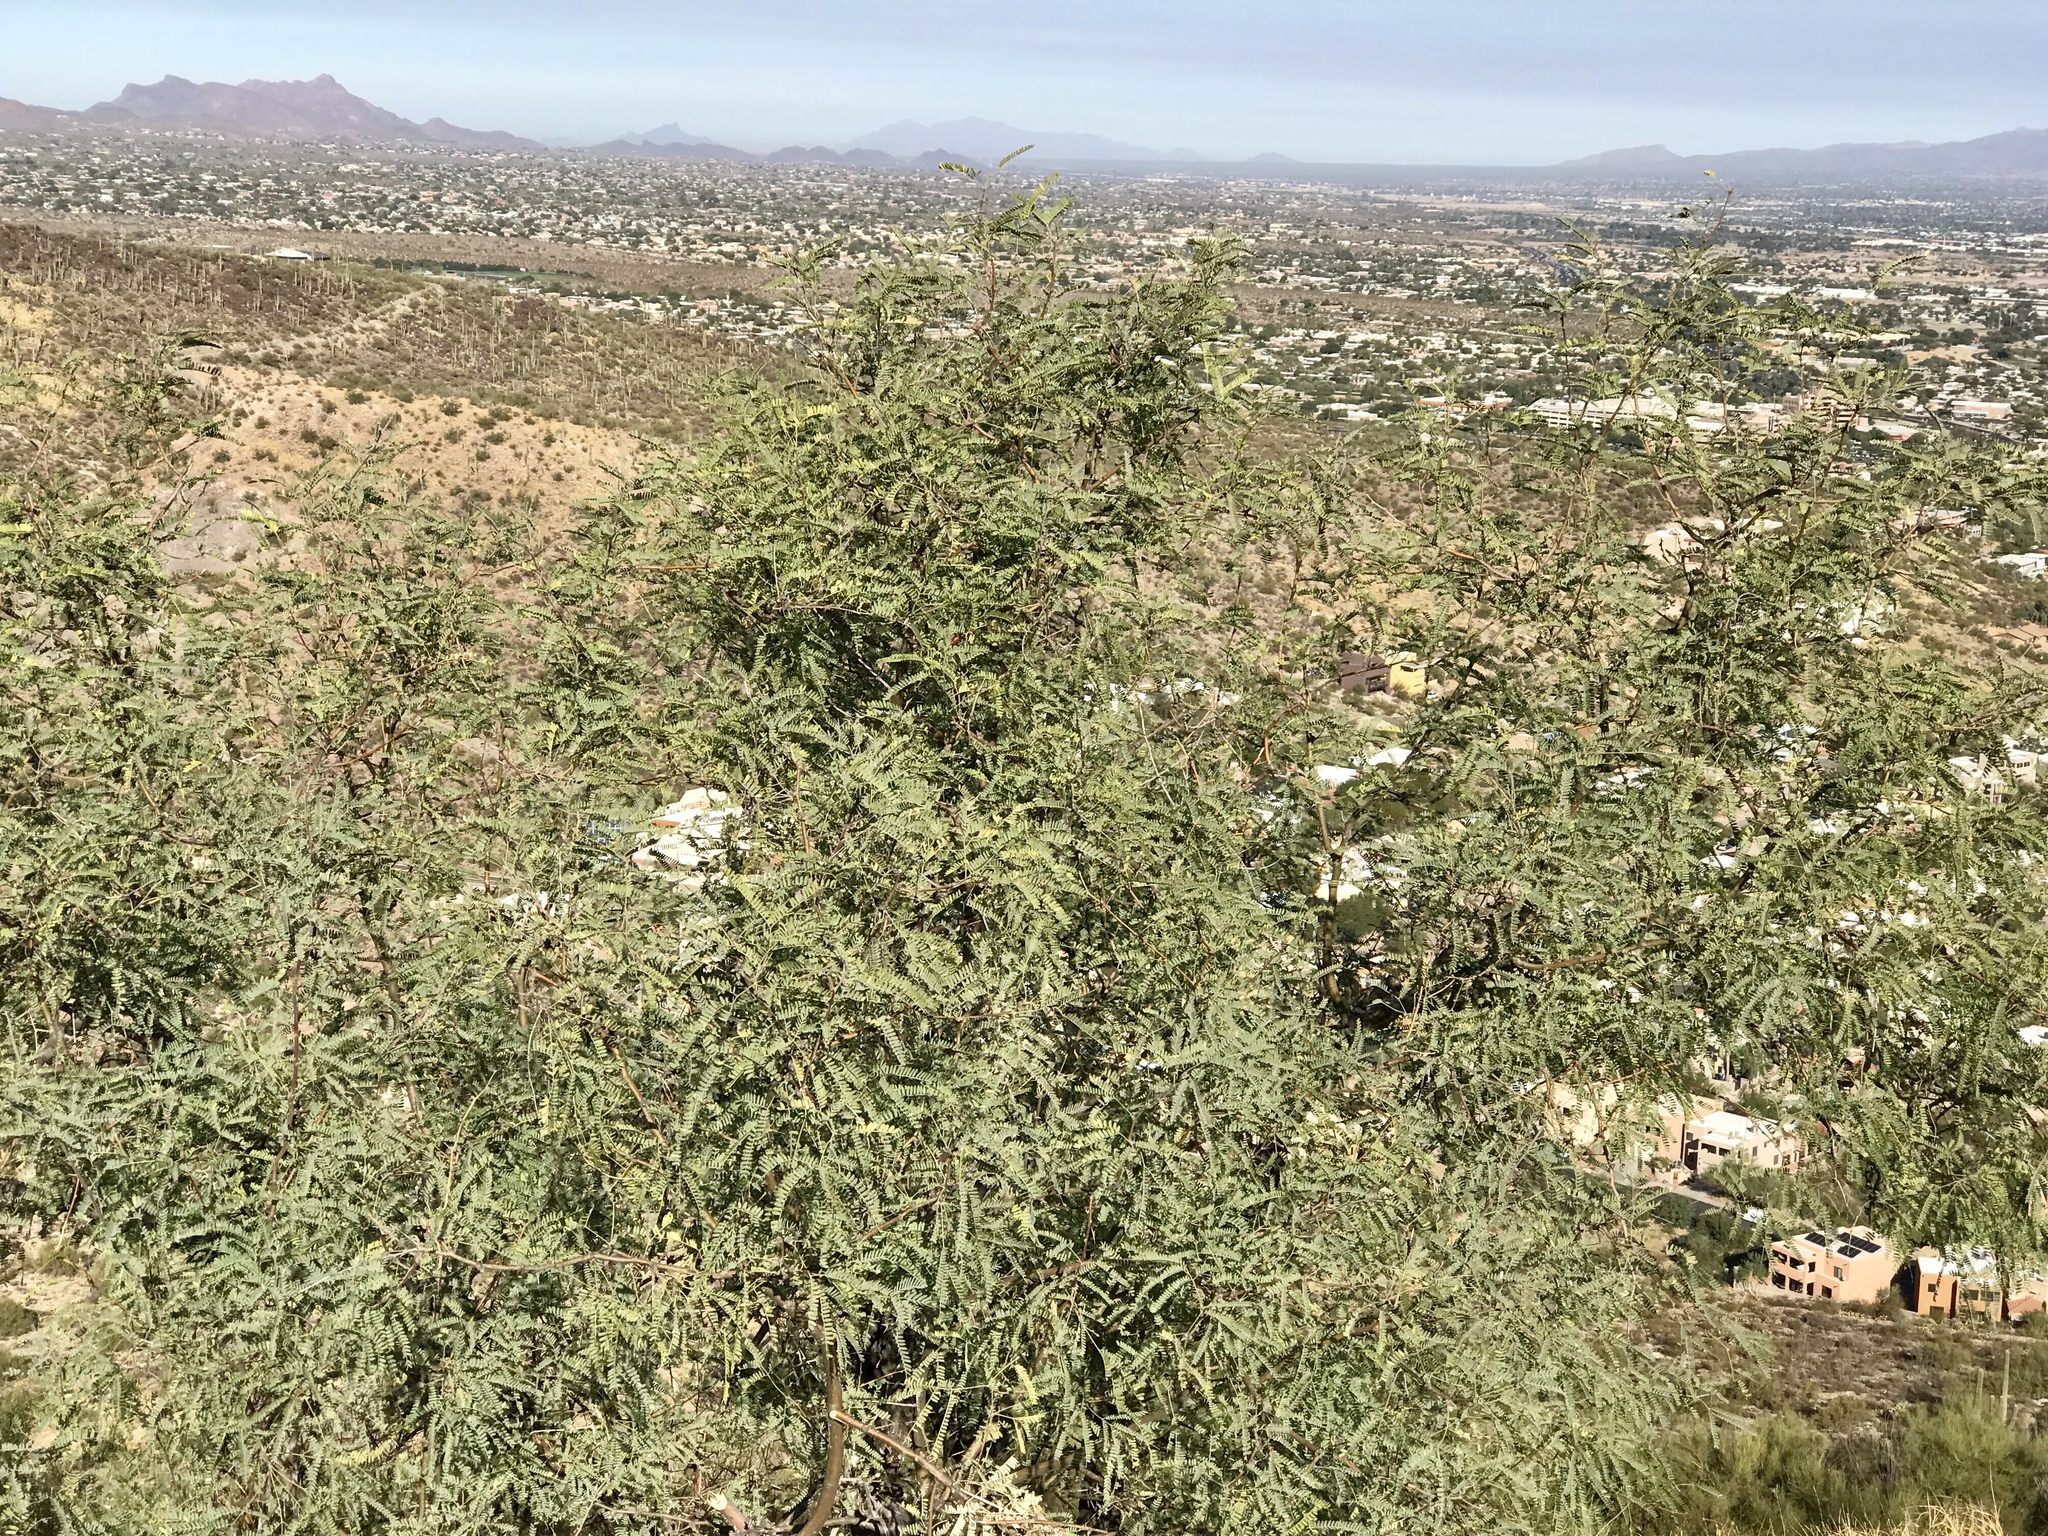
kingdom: Plantae
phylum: Tracheophyta
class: Magnoliopsida
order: Fabales
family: Fabaceae
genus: Prosopis
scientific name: Prosopis velutina
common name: Velvet mesquite
